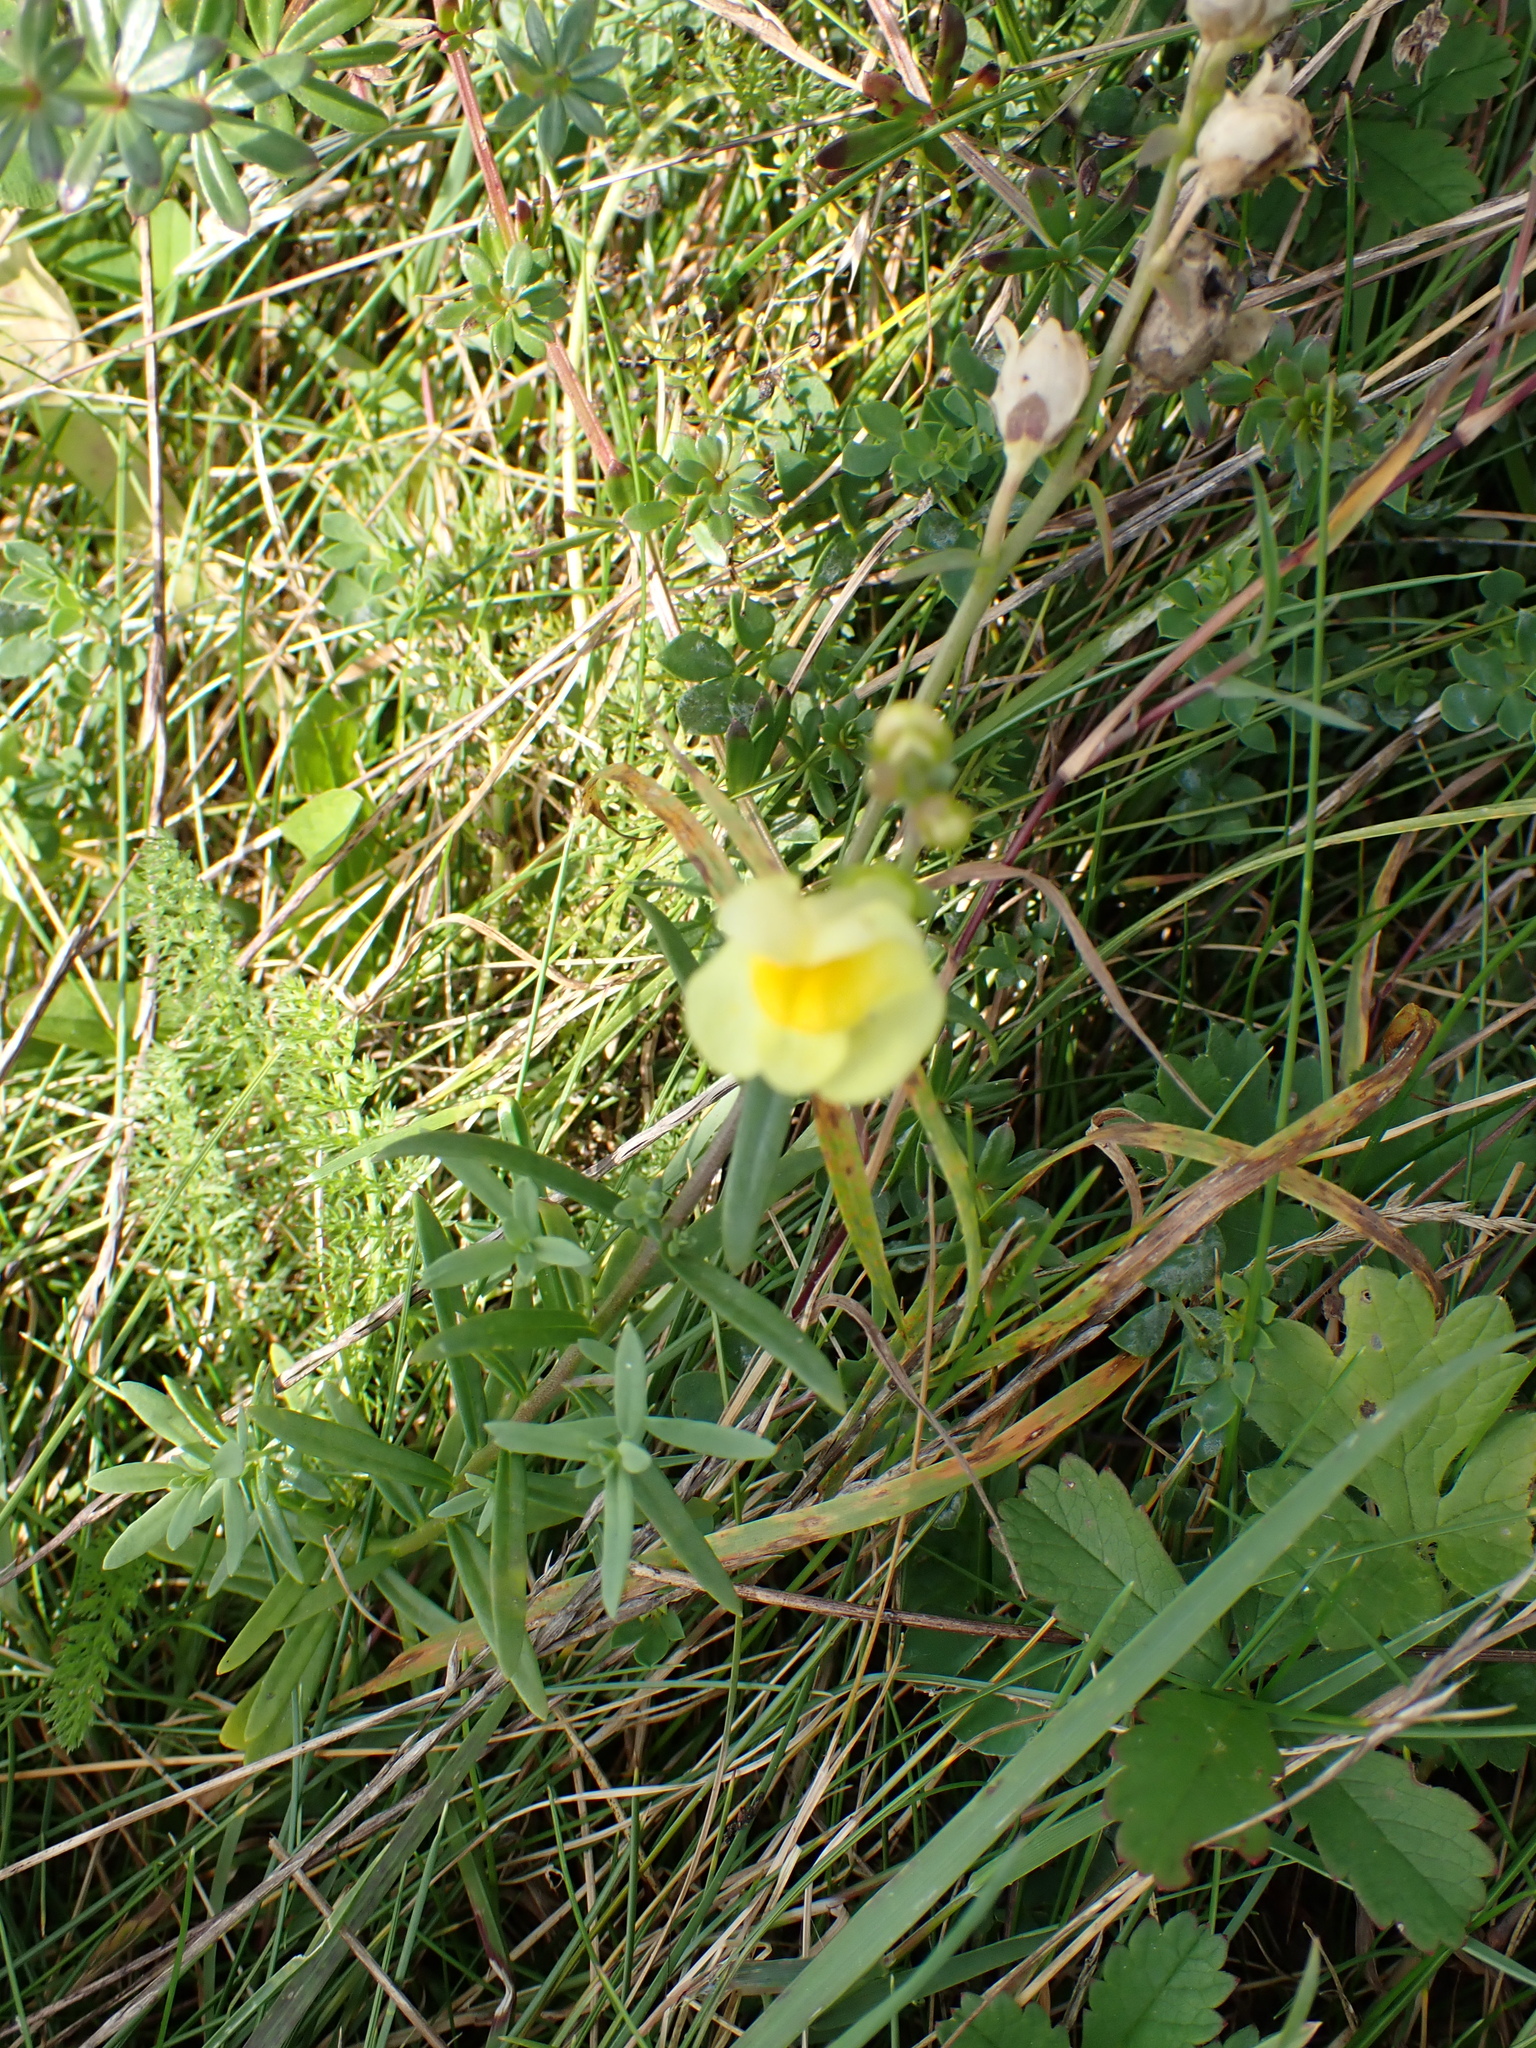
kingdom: Plantae
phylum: Tracheophyta
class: Magnoliopsida
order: Lamiales
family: Plantaginaceae
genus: Linaria
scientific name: Linaria vulgaris
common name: Butter and eggs
